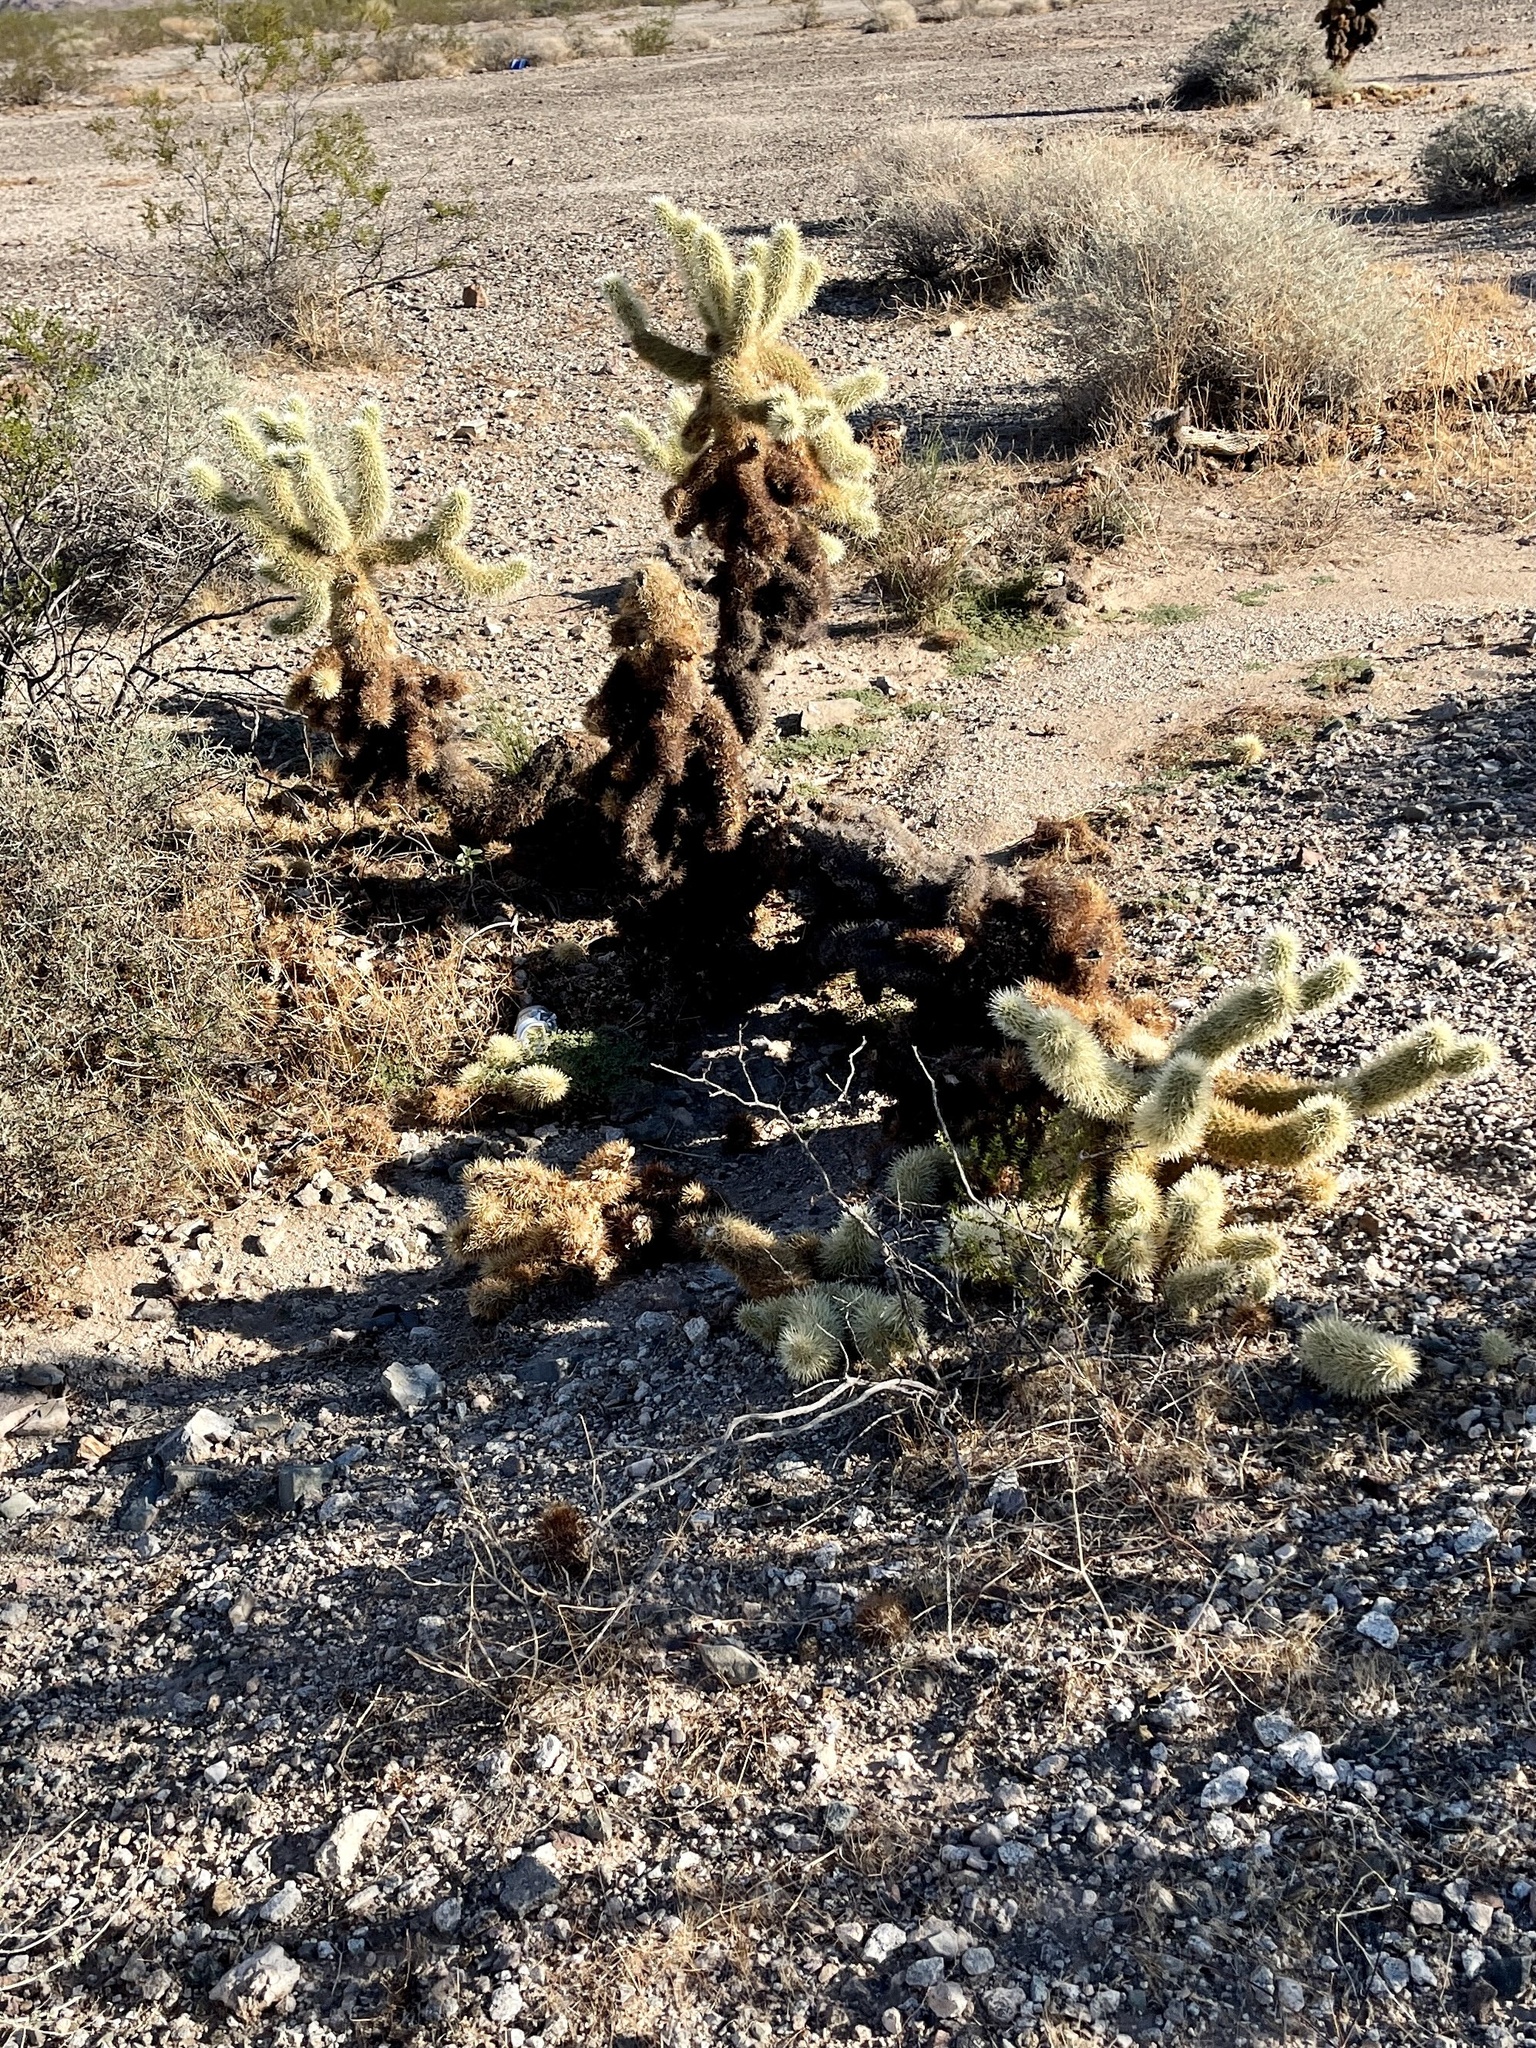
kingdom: Plantae
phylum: Tracheophyta
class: Magnoliopsida
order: Caryophyllales
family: Cactaceae
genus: Cylindropuntia
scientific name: Cylindropuntia fosbergii
